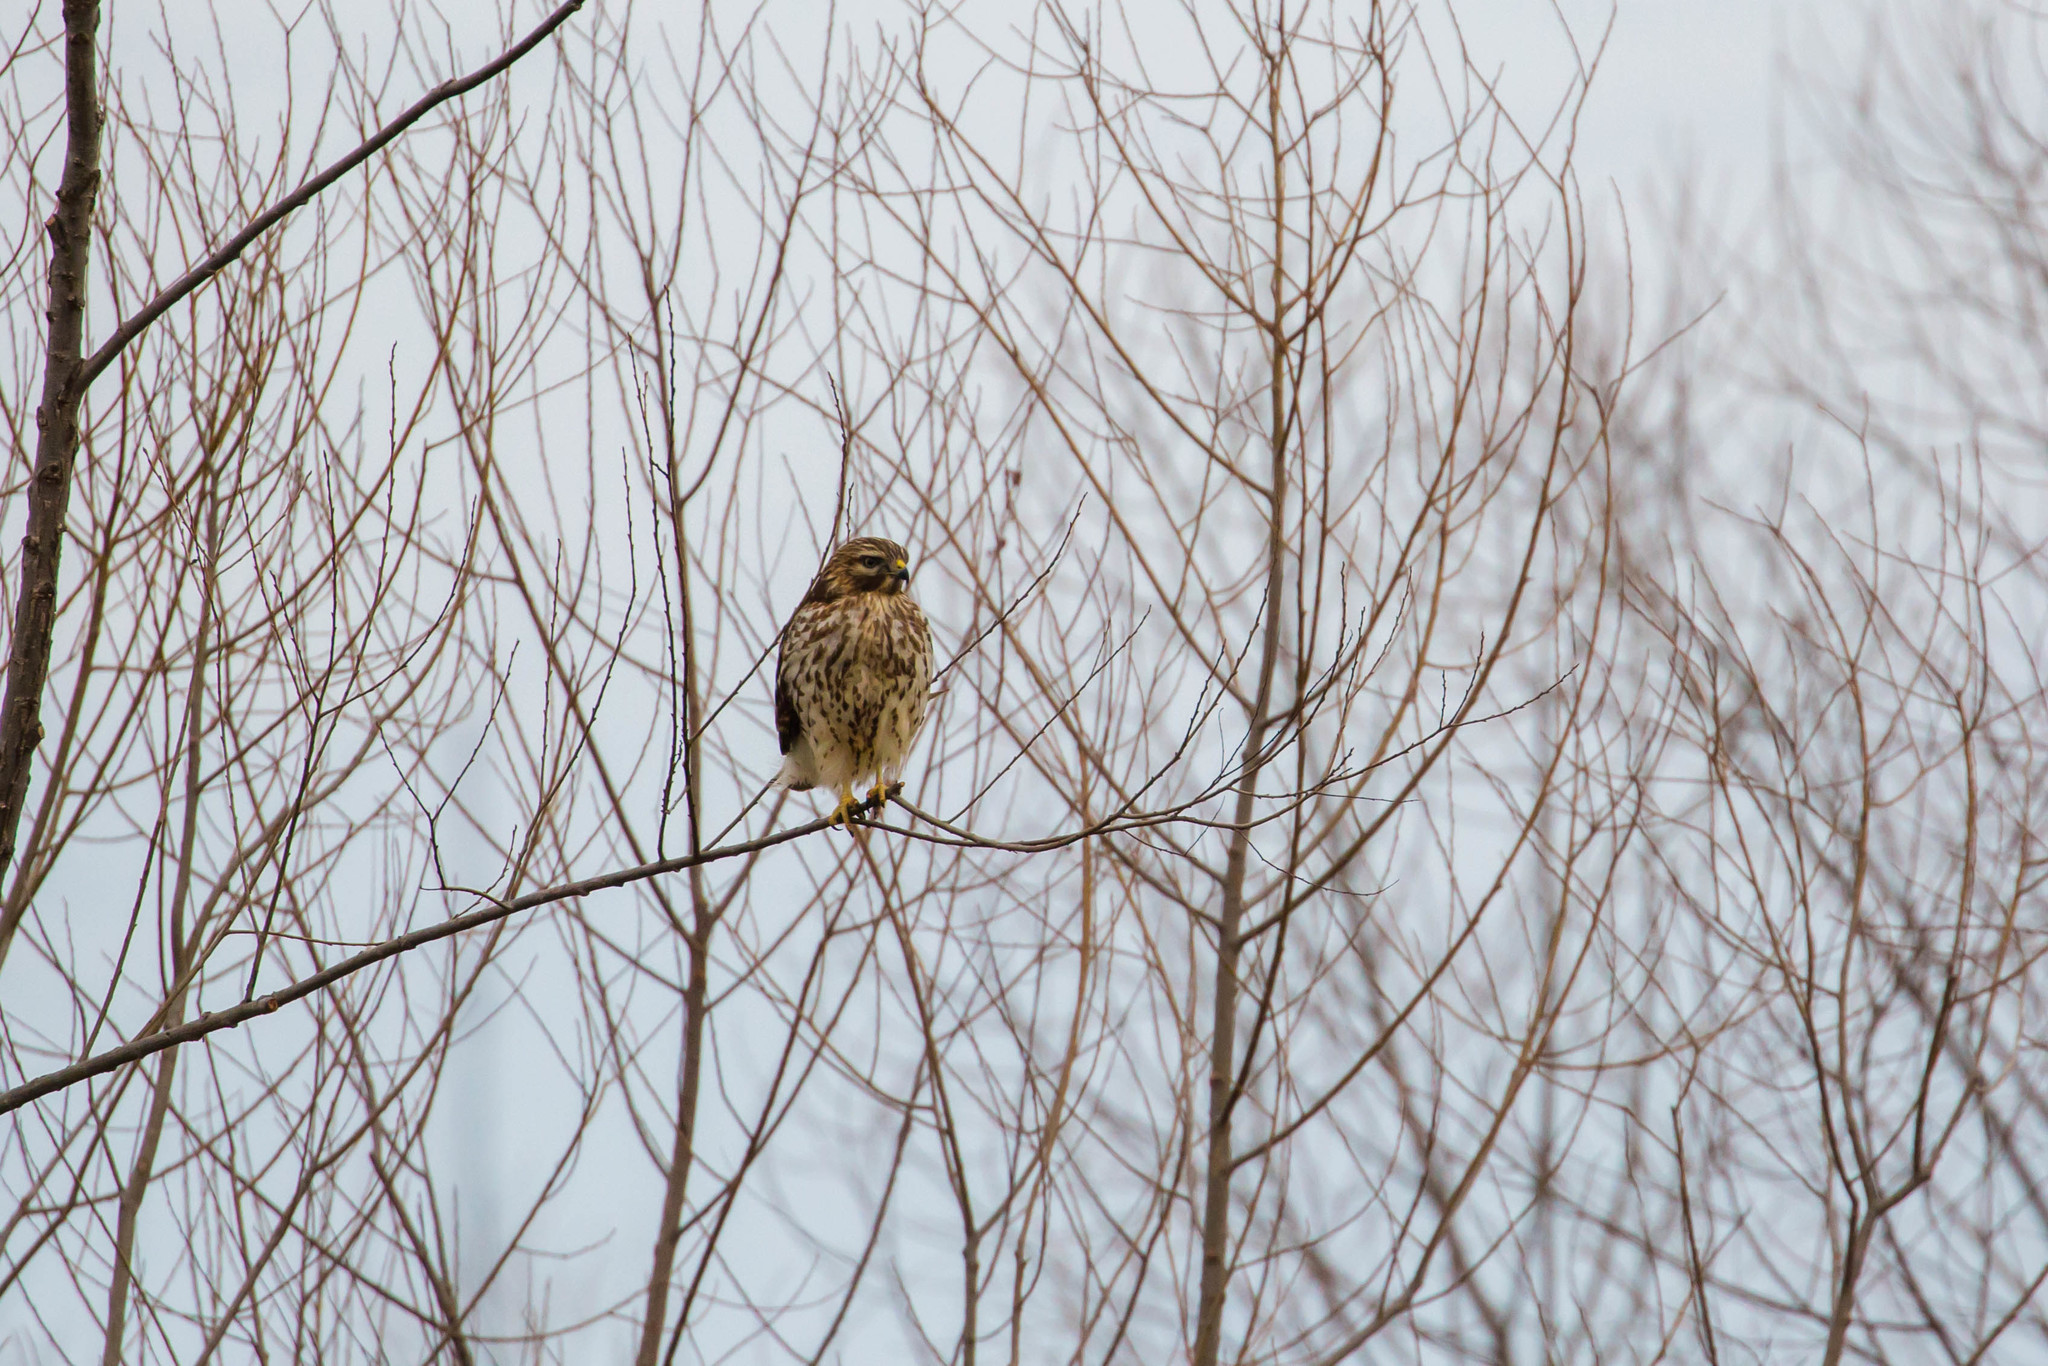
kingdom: Animalia
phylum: Chordata
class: Aves
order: Accipitriformes
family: Accipitridae
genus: Buteo
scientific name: Buteo lineatus
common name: Red-shouldered hawk
